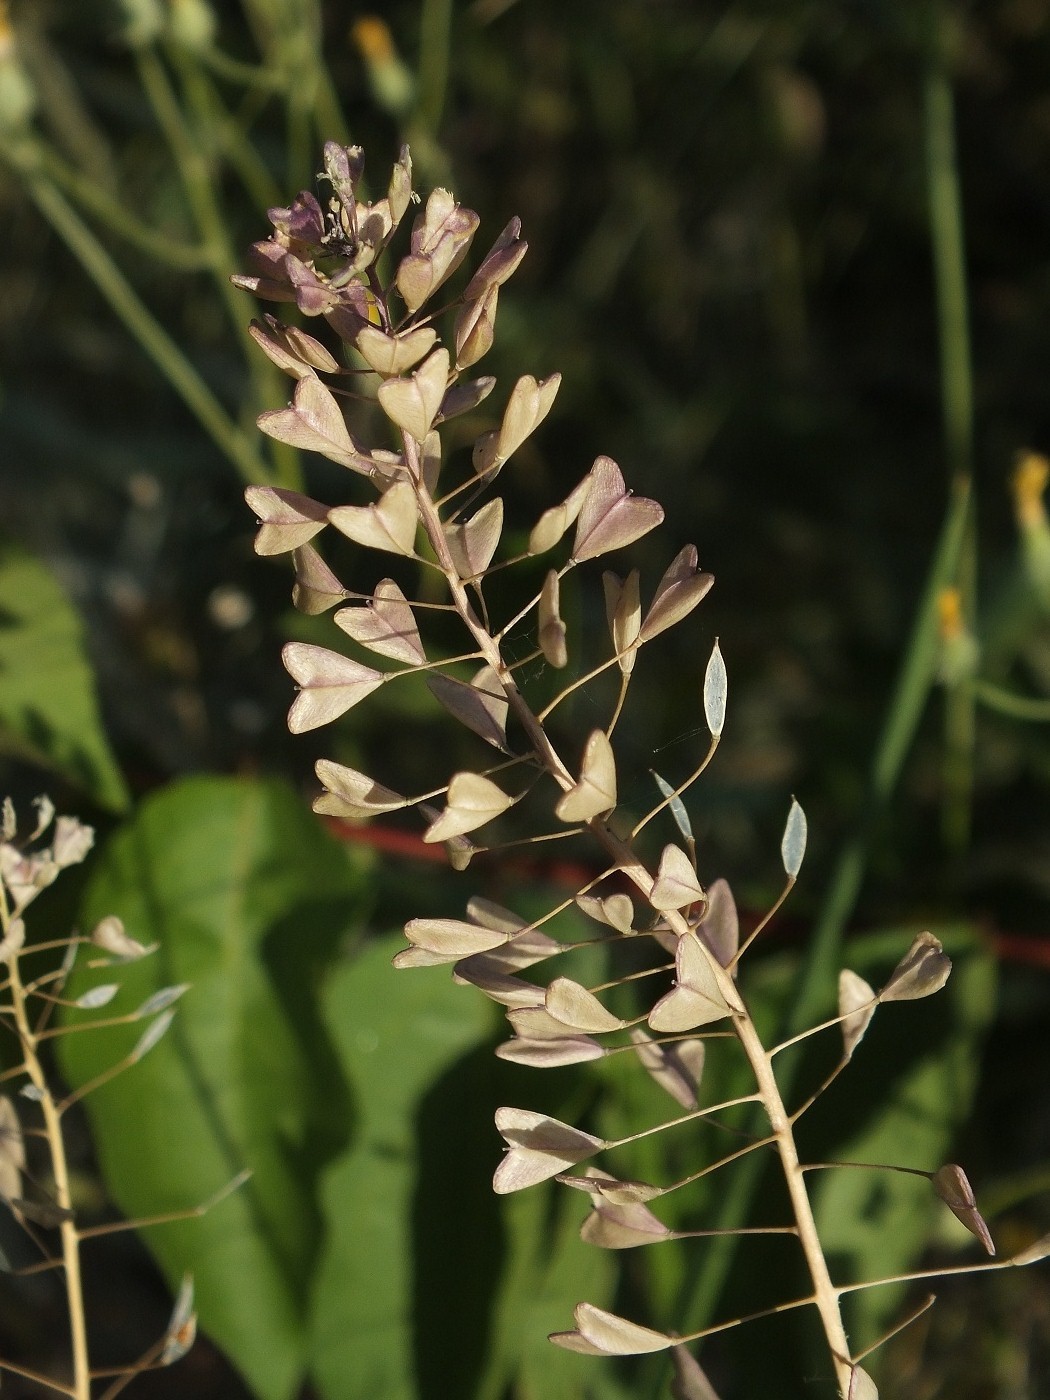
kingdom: Plantae
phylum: Tracheophyta
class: Magnoliopsida
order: Brassicales
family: Brassicaceae
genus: Capsella
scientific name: Capsella bursa-pastoris
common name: Shepherd's purse
